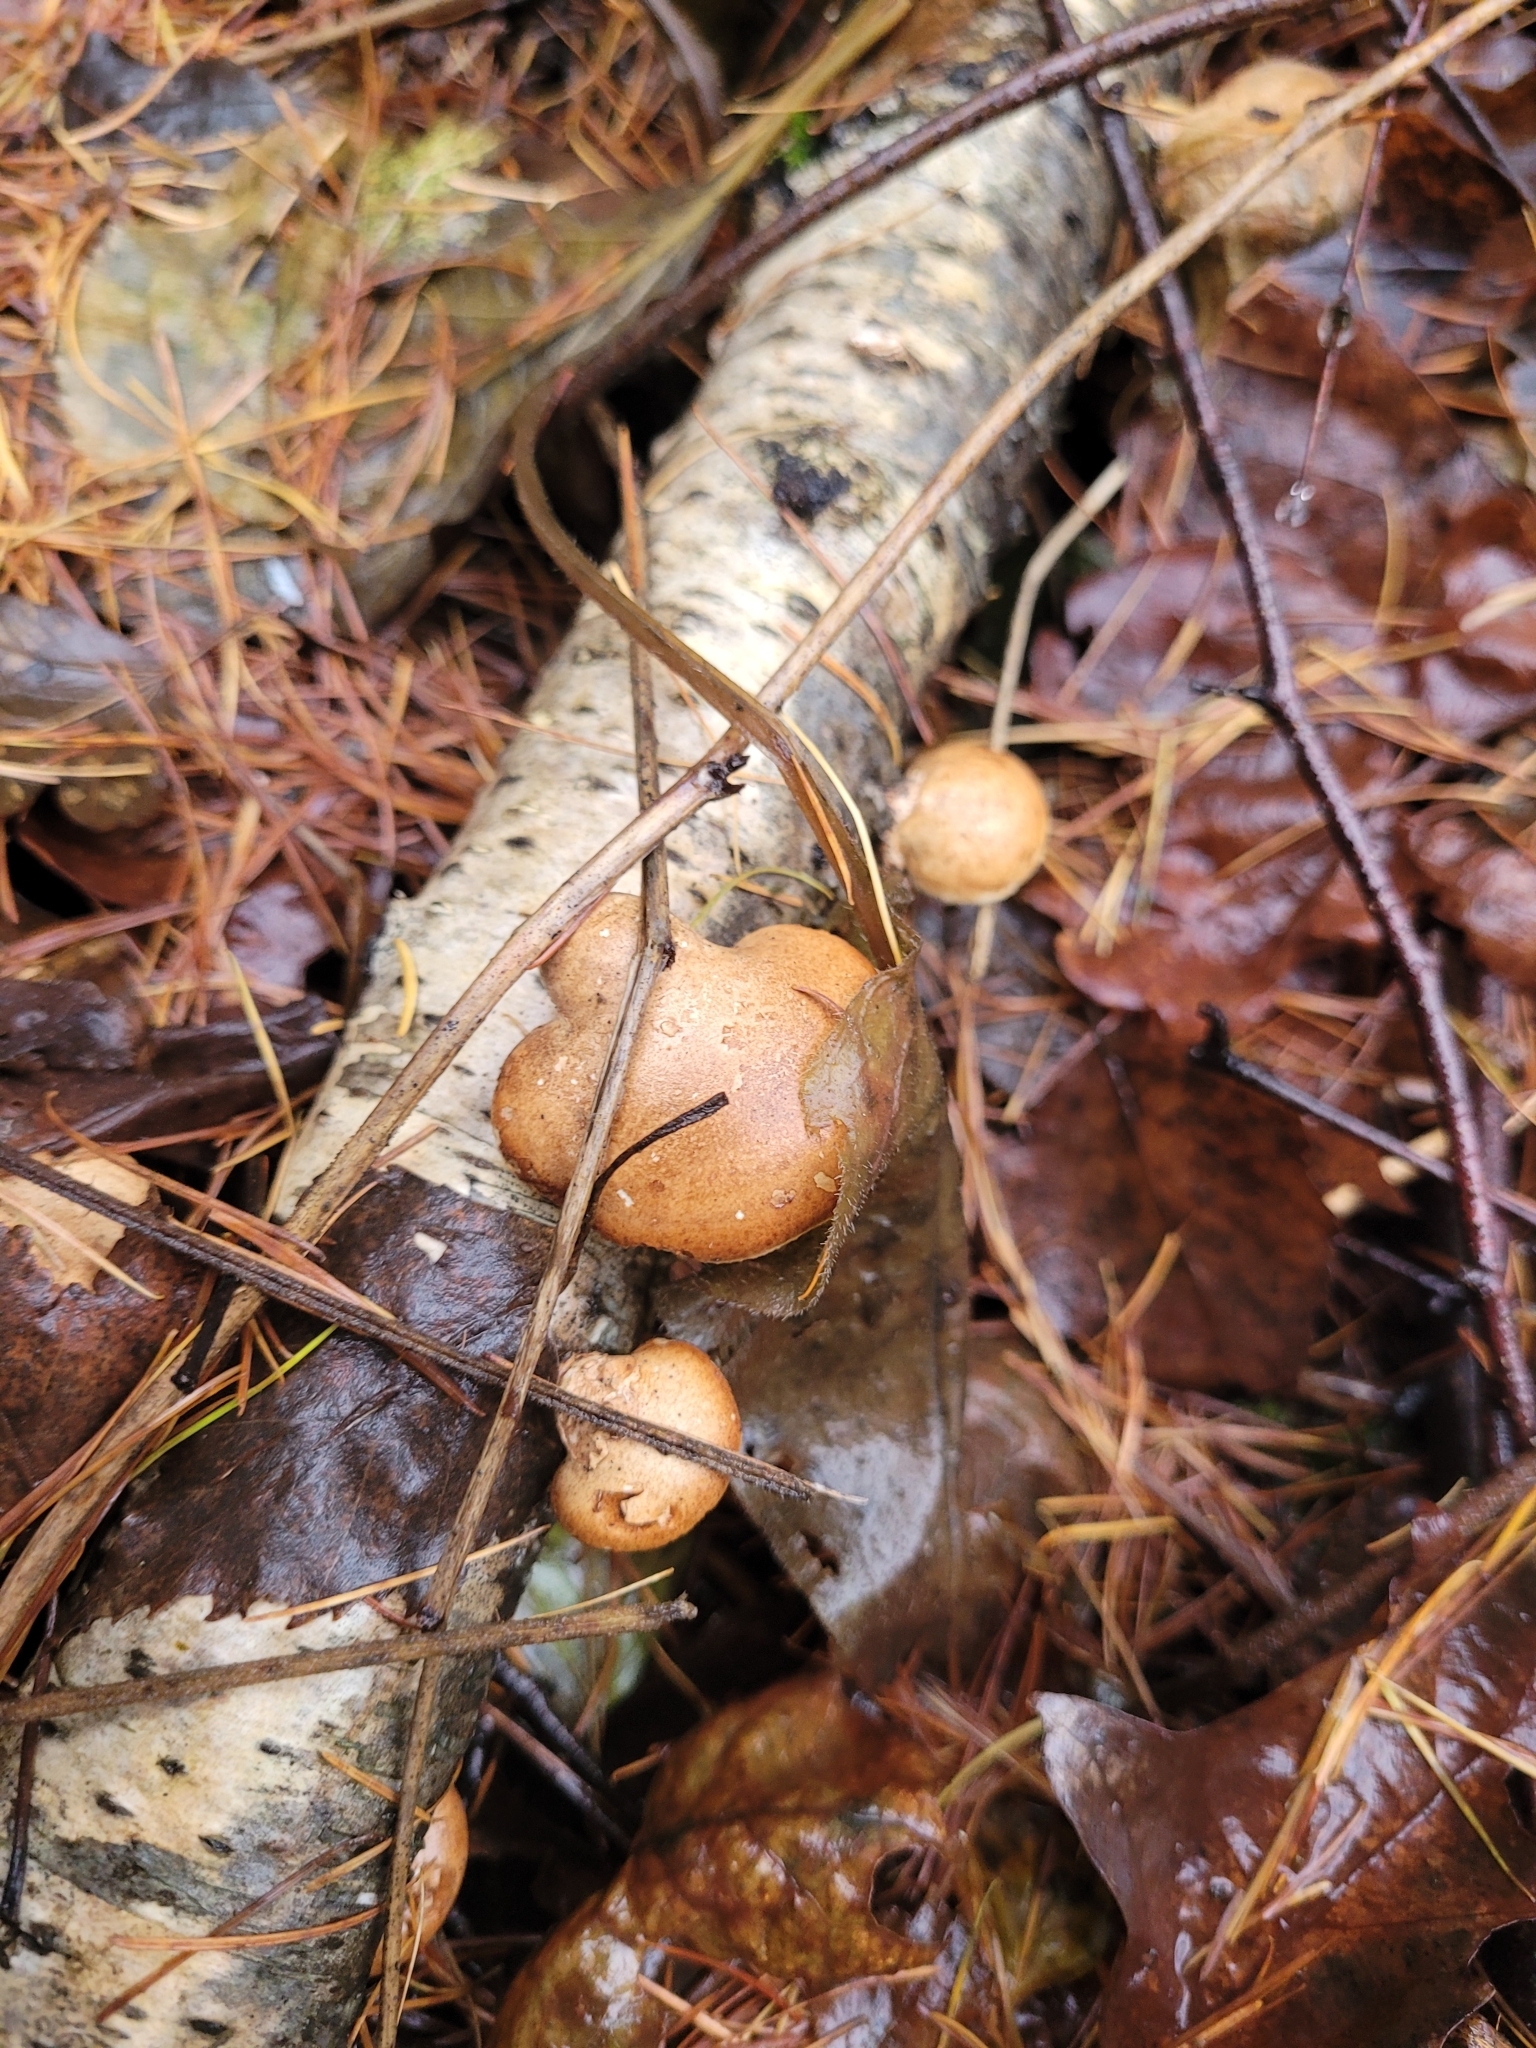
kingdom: Fungi
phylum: Basidiomycota
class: Agaricomycetes
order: Polyporales
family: Fomitopsidaceae
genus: Fomitopsis
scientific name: Fomitopsis betulina
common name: Birch polypore
